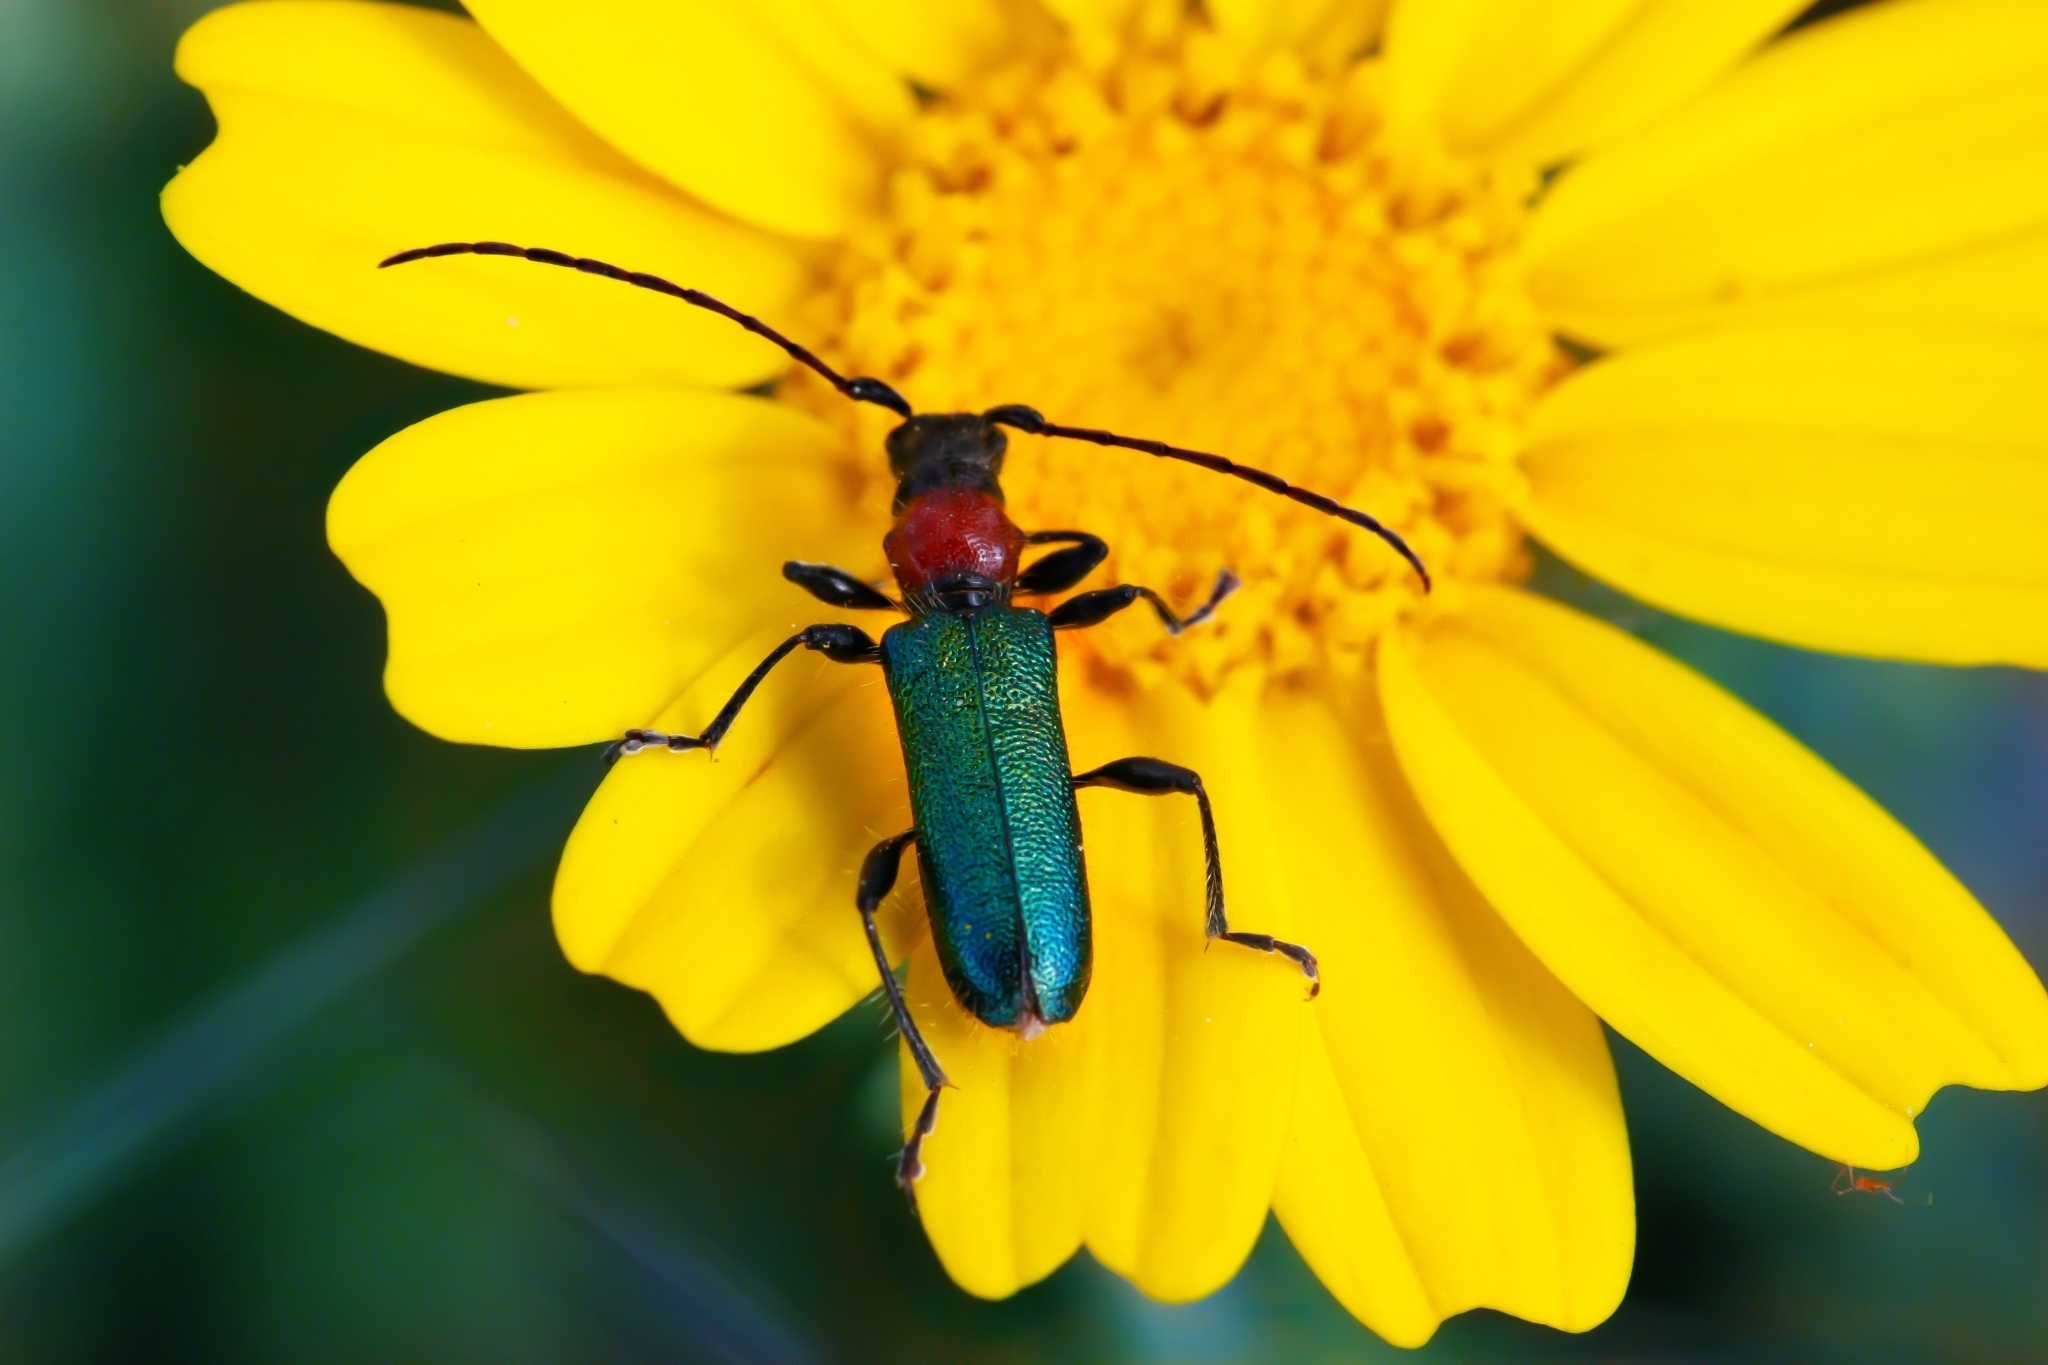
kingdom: Animalia
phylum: Arthropoda
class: Insecta
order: Coleoptera
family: Cerambycidae
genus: Certallum
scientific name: Certallum ebulinum
